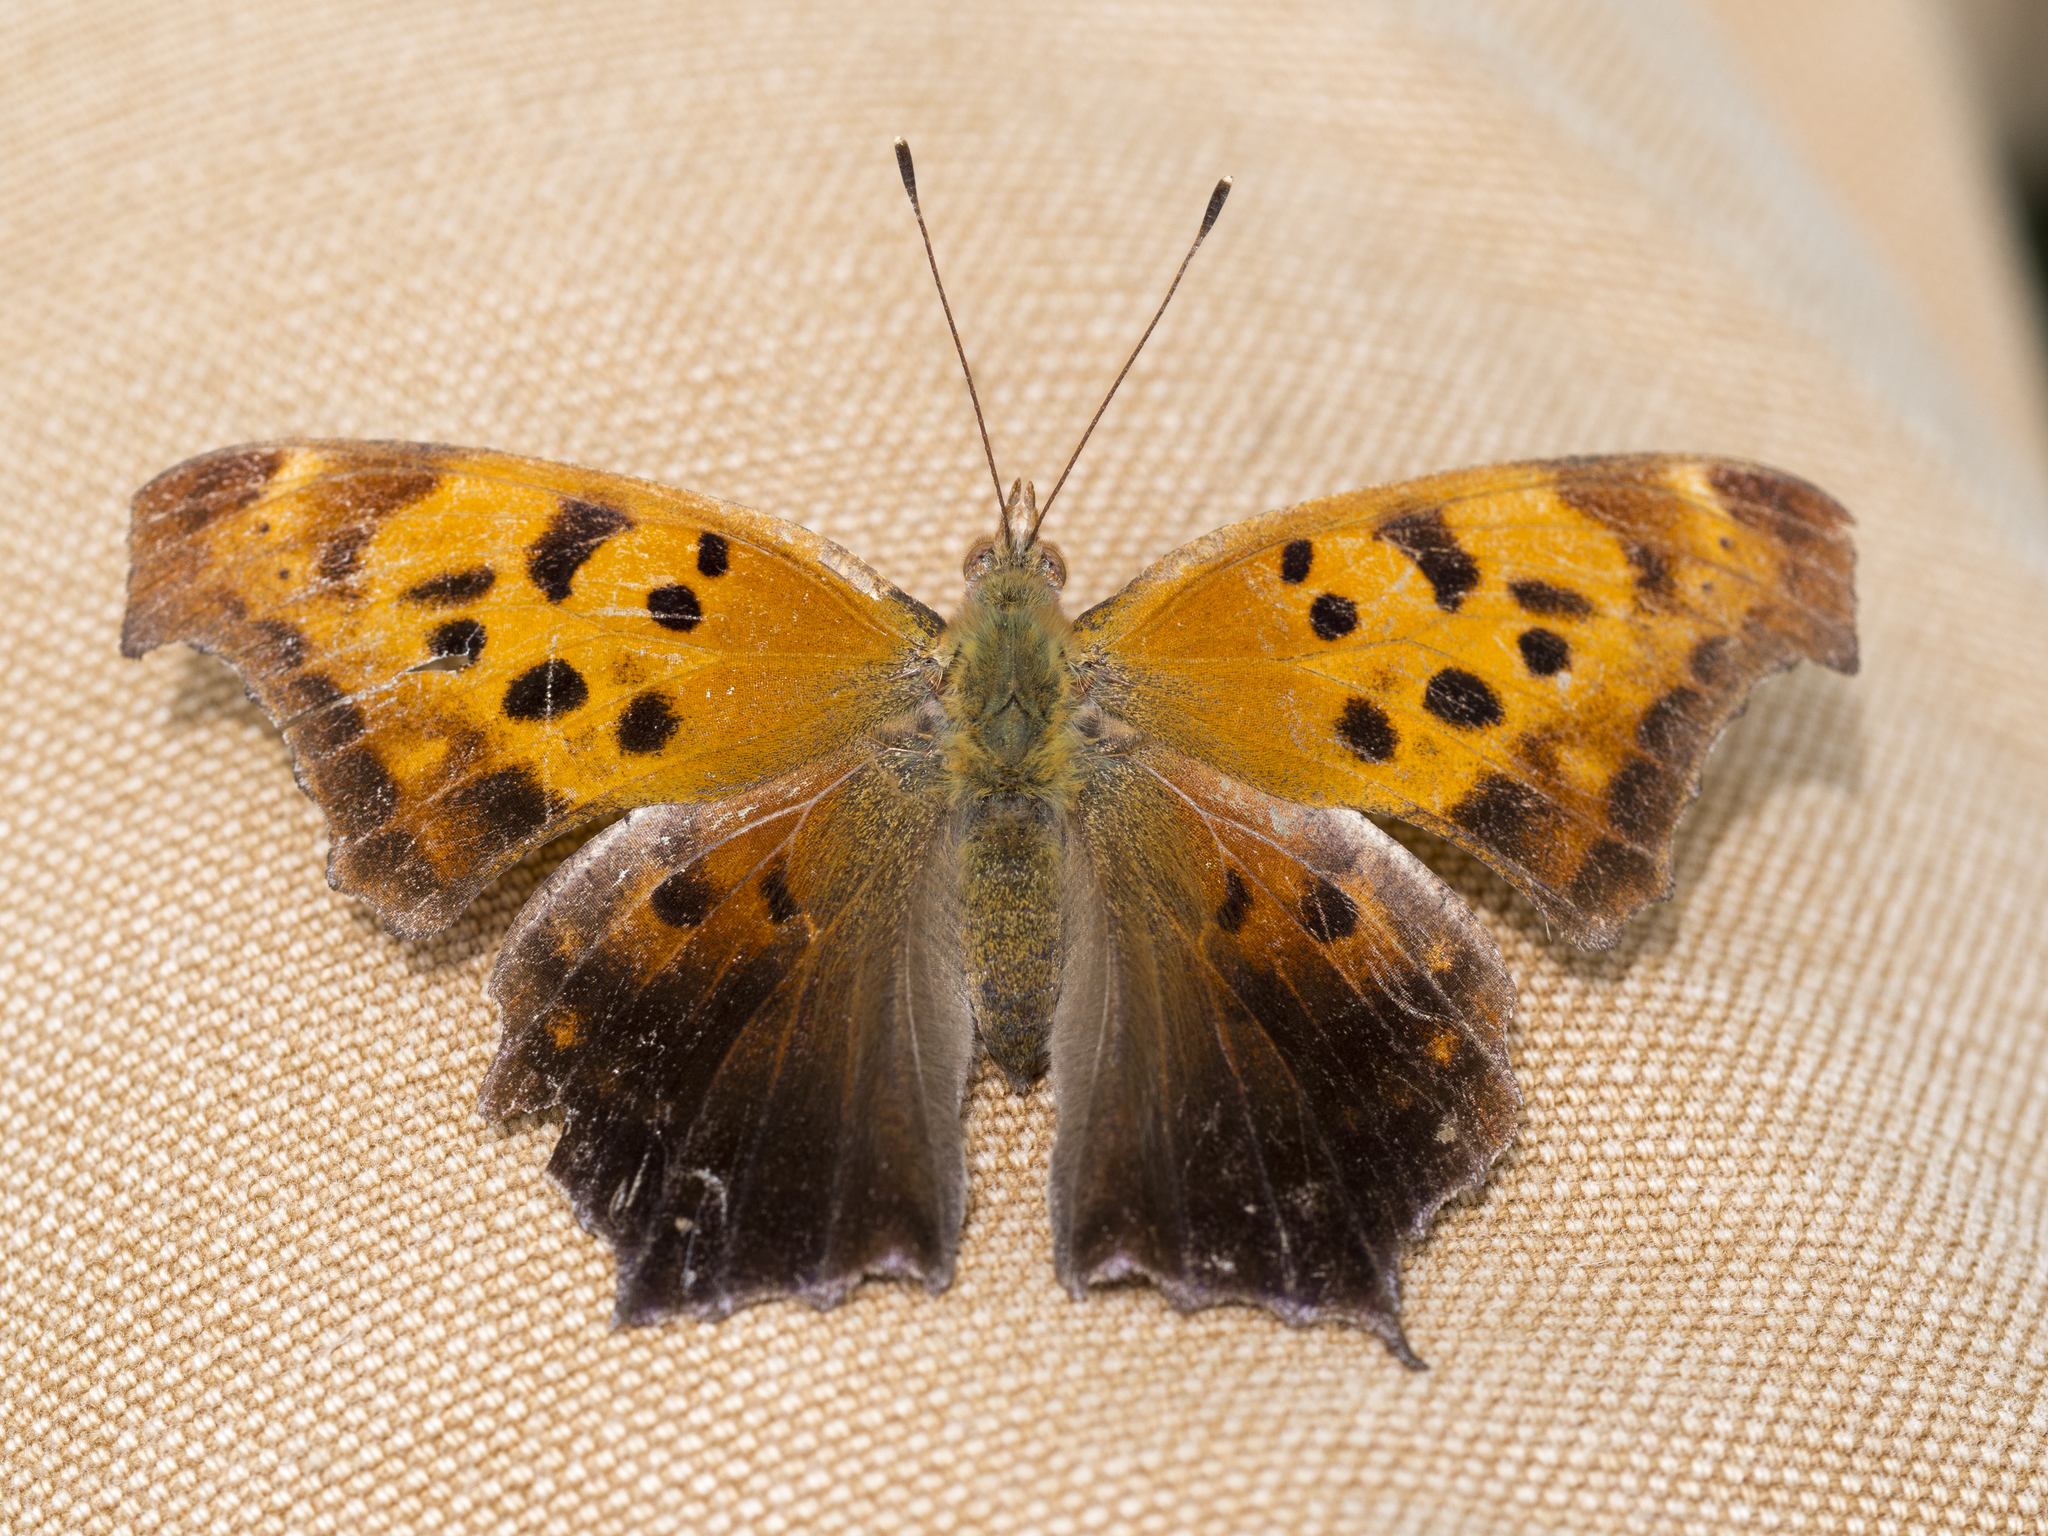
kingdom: Animalia
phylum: Arthropoda
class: Insecta
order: Lepidoptera
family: Nymphalidae
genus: Polygonia
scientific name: Polygonia interrogationis
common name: Question mark
